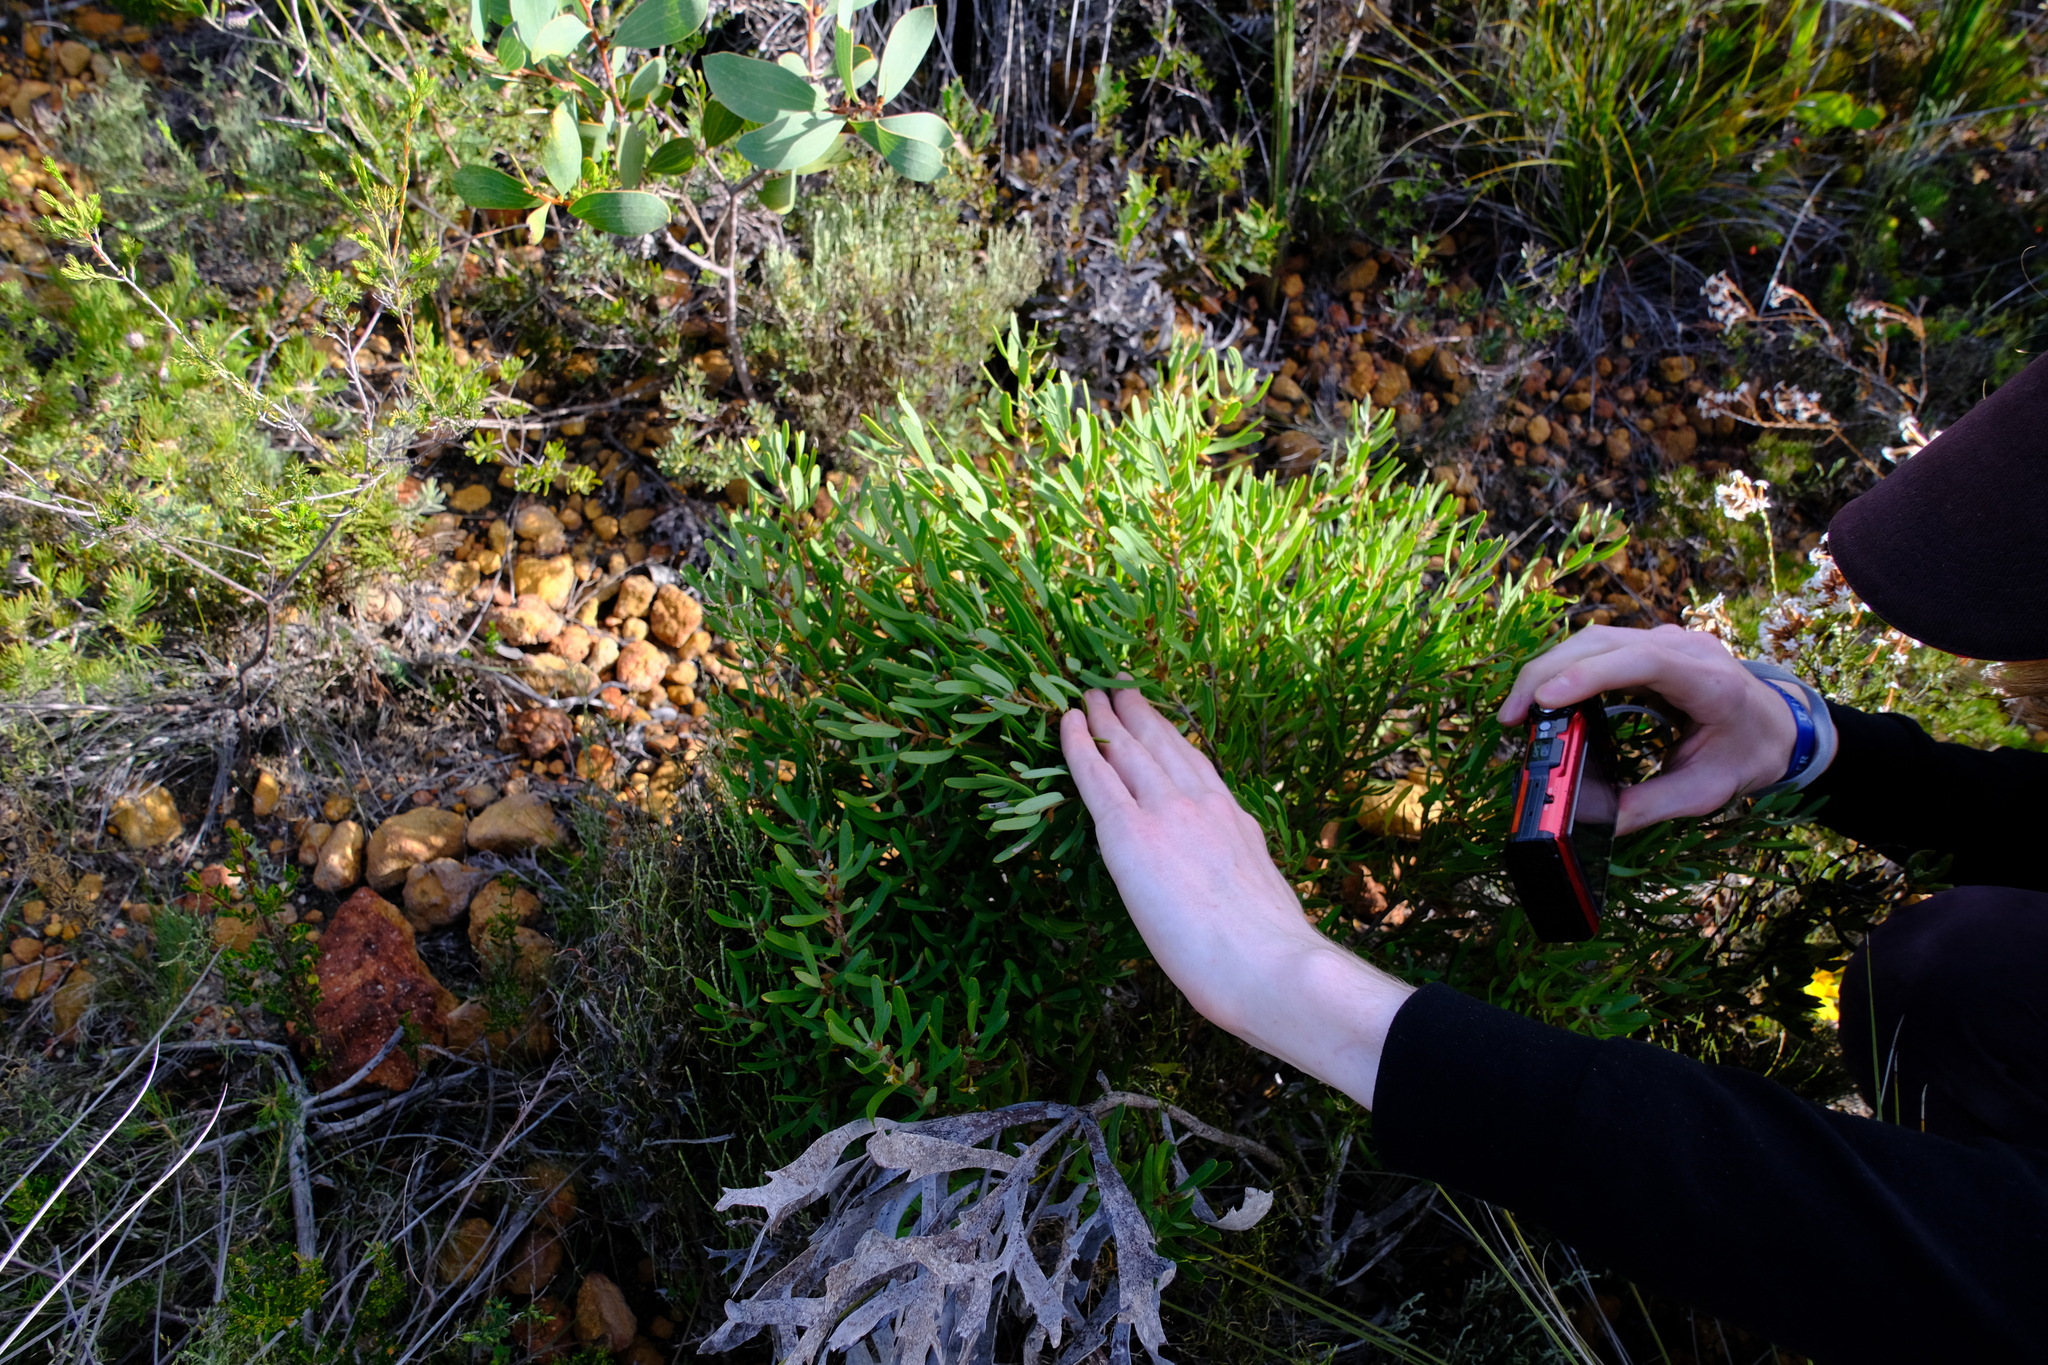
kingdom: Plantae
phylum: Tracheophyta
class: Magnoliopsida
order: Proteales
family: Proteaceae
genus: Persoonia
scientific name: Persoonia rufiflora
